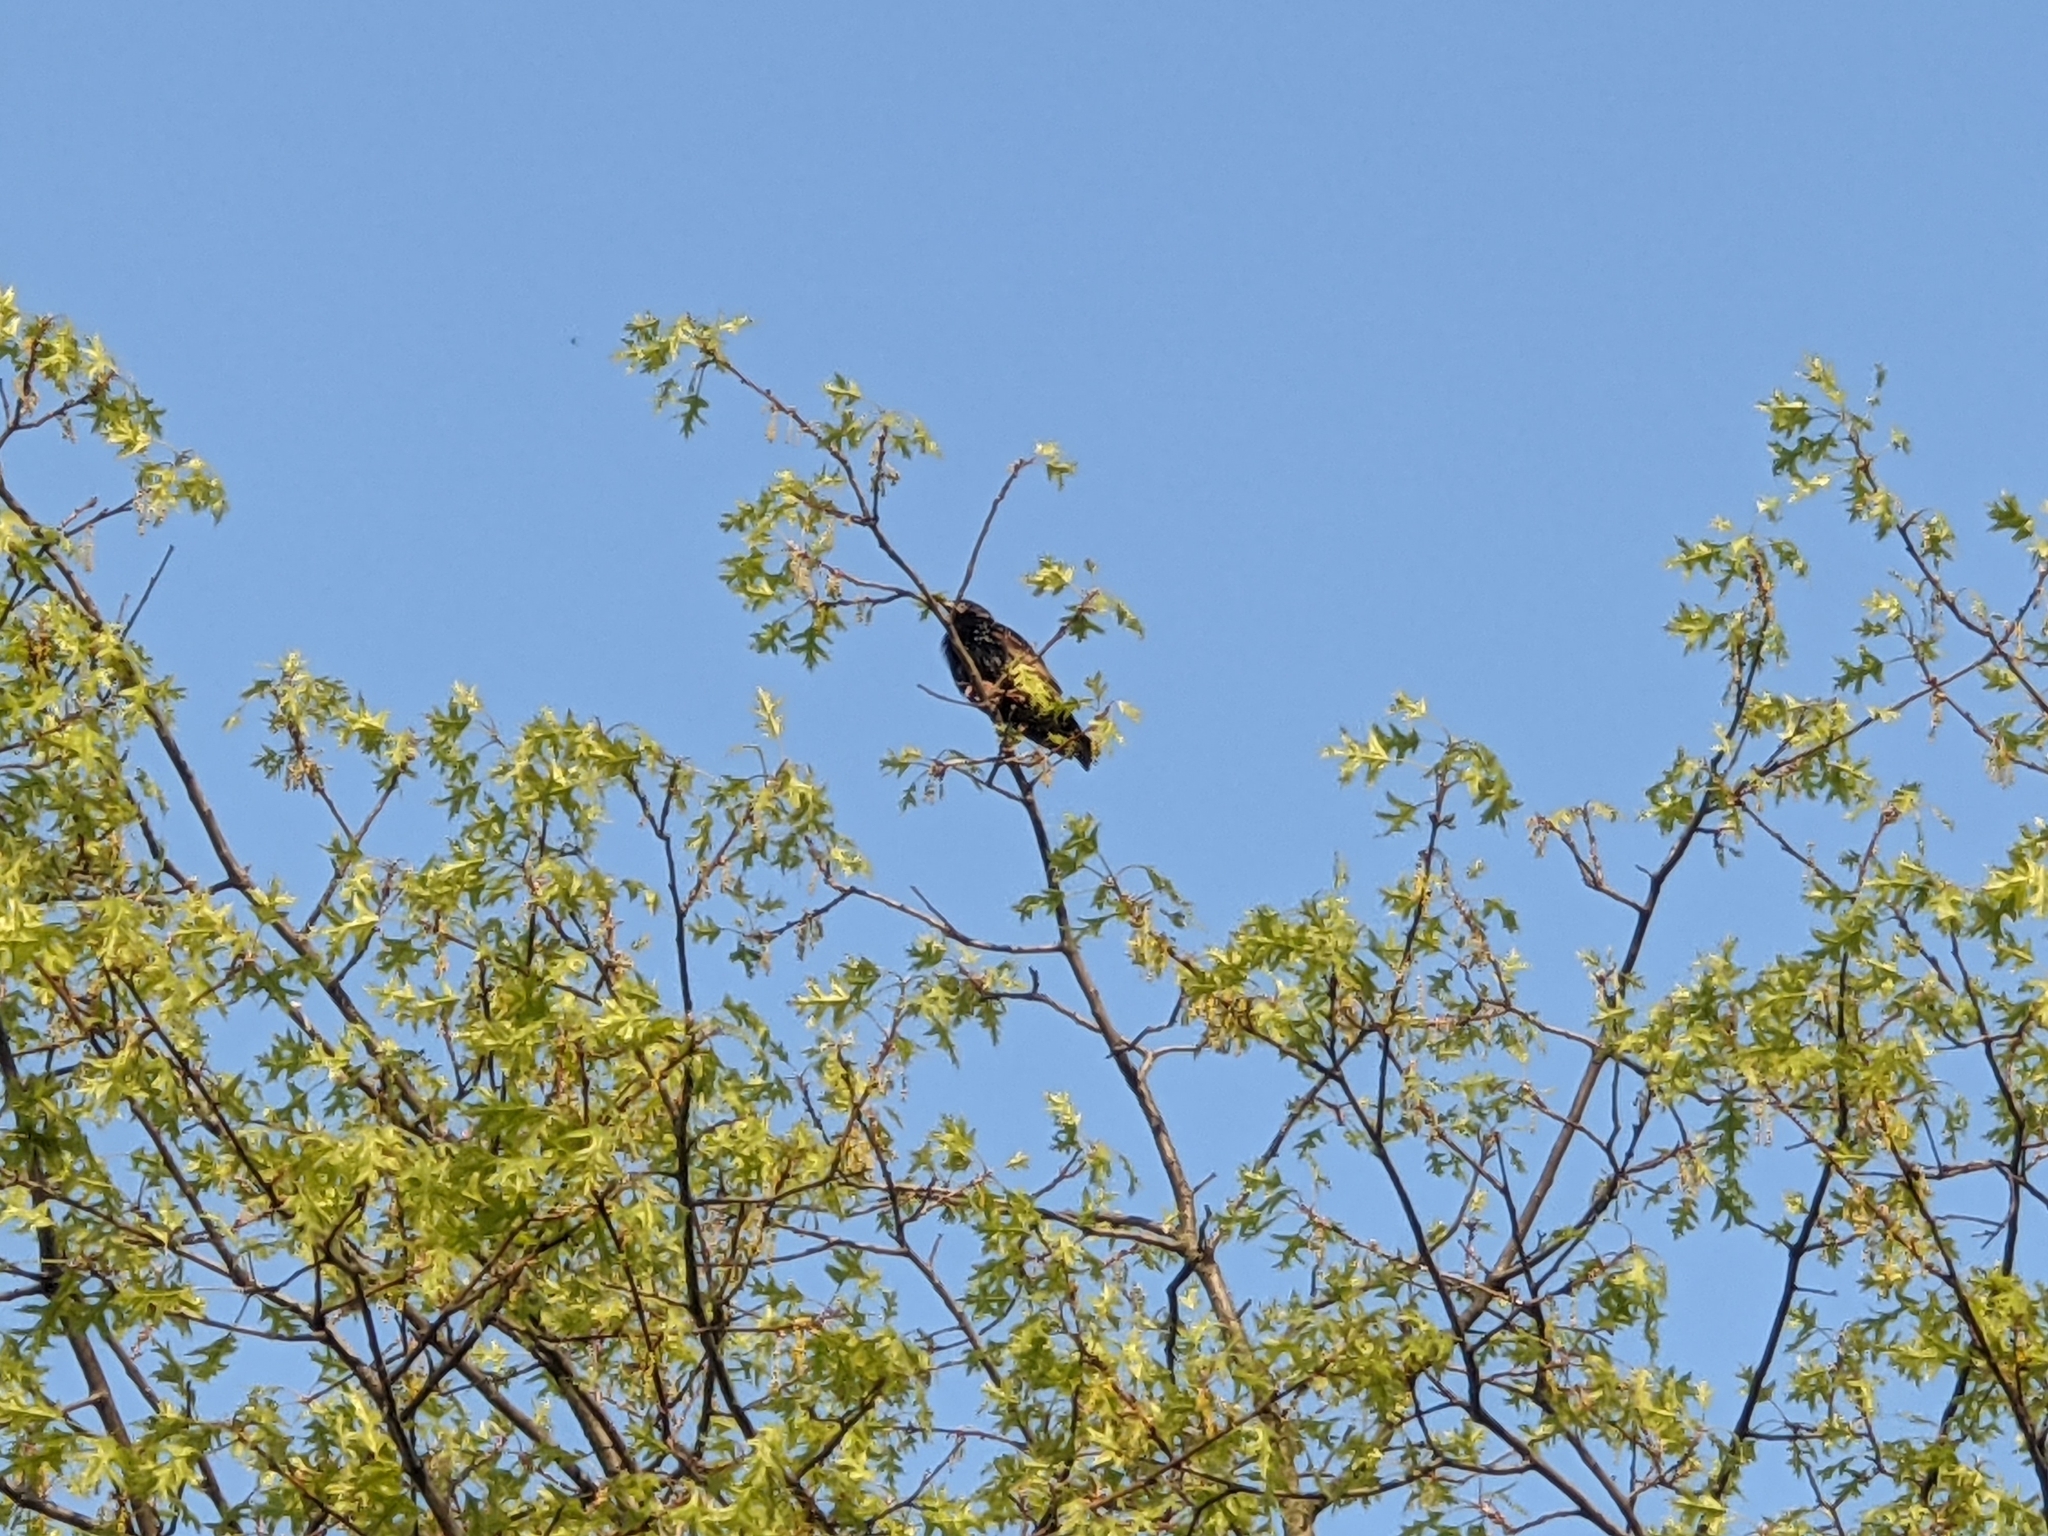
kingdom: Animalia
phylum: Chordata
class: Aves
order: Passeriformes
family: Sturnidae
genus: Sturnus
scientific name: Sturnus vulgaris
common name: Common starling
